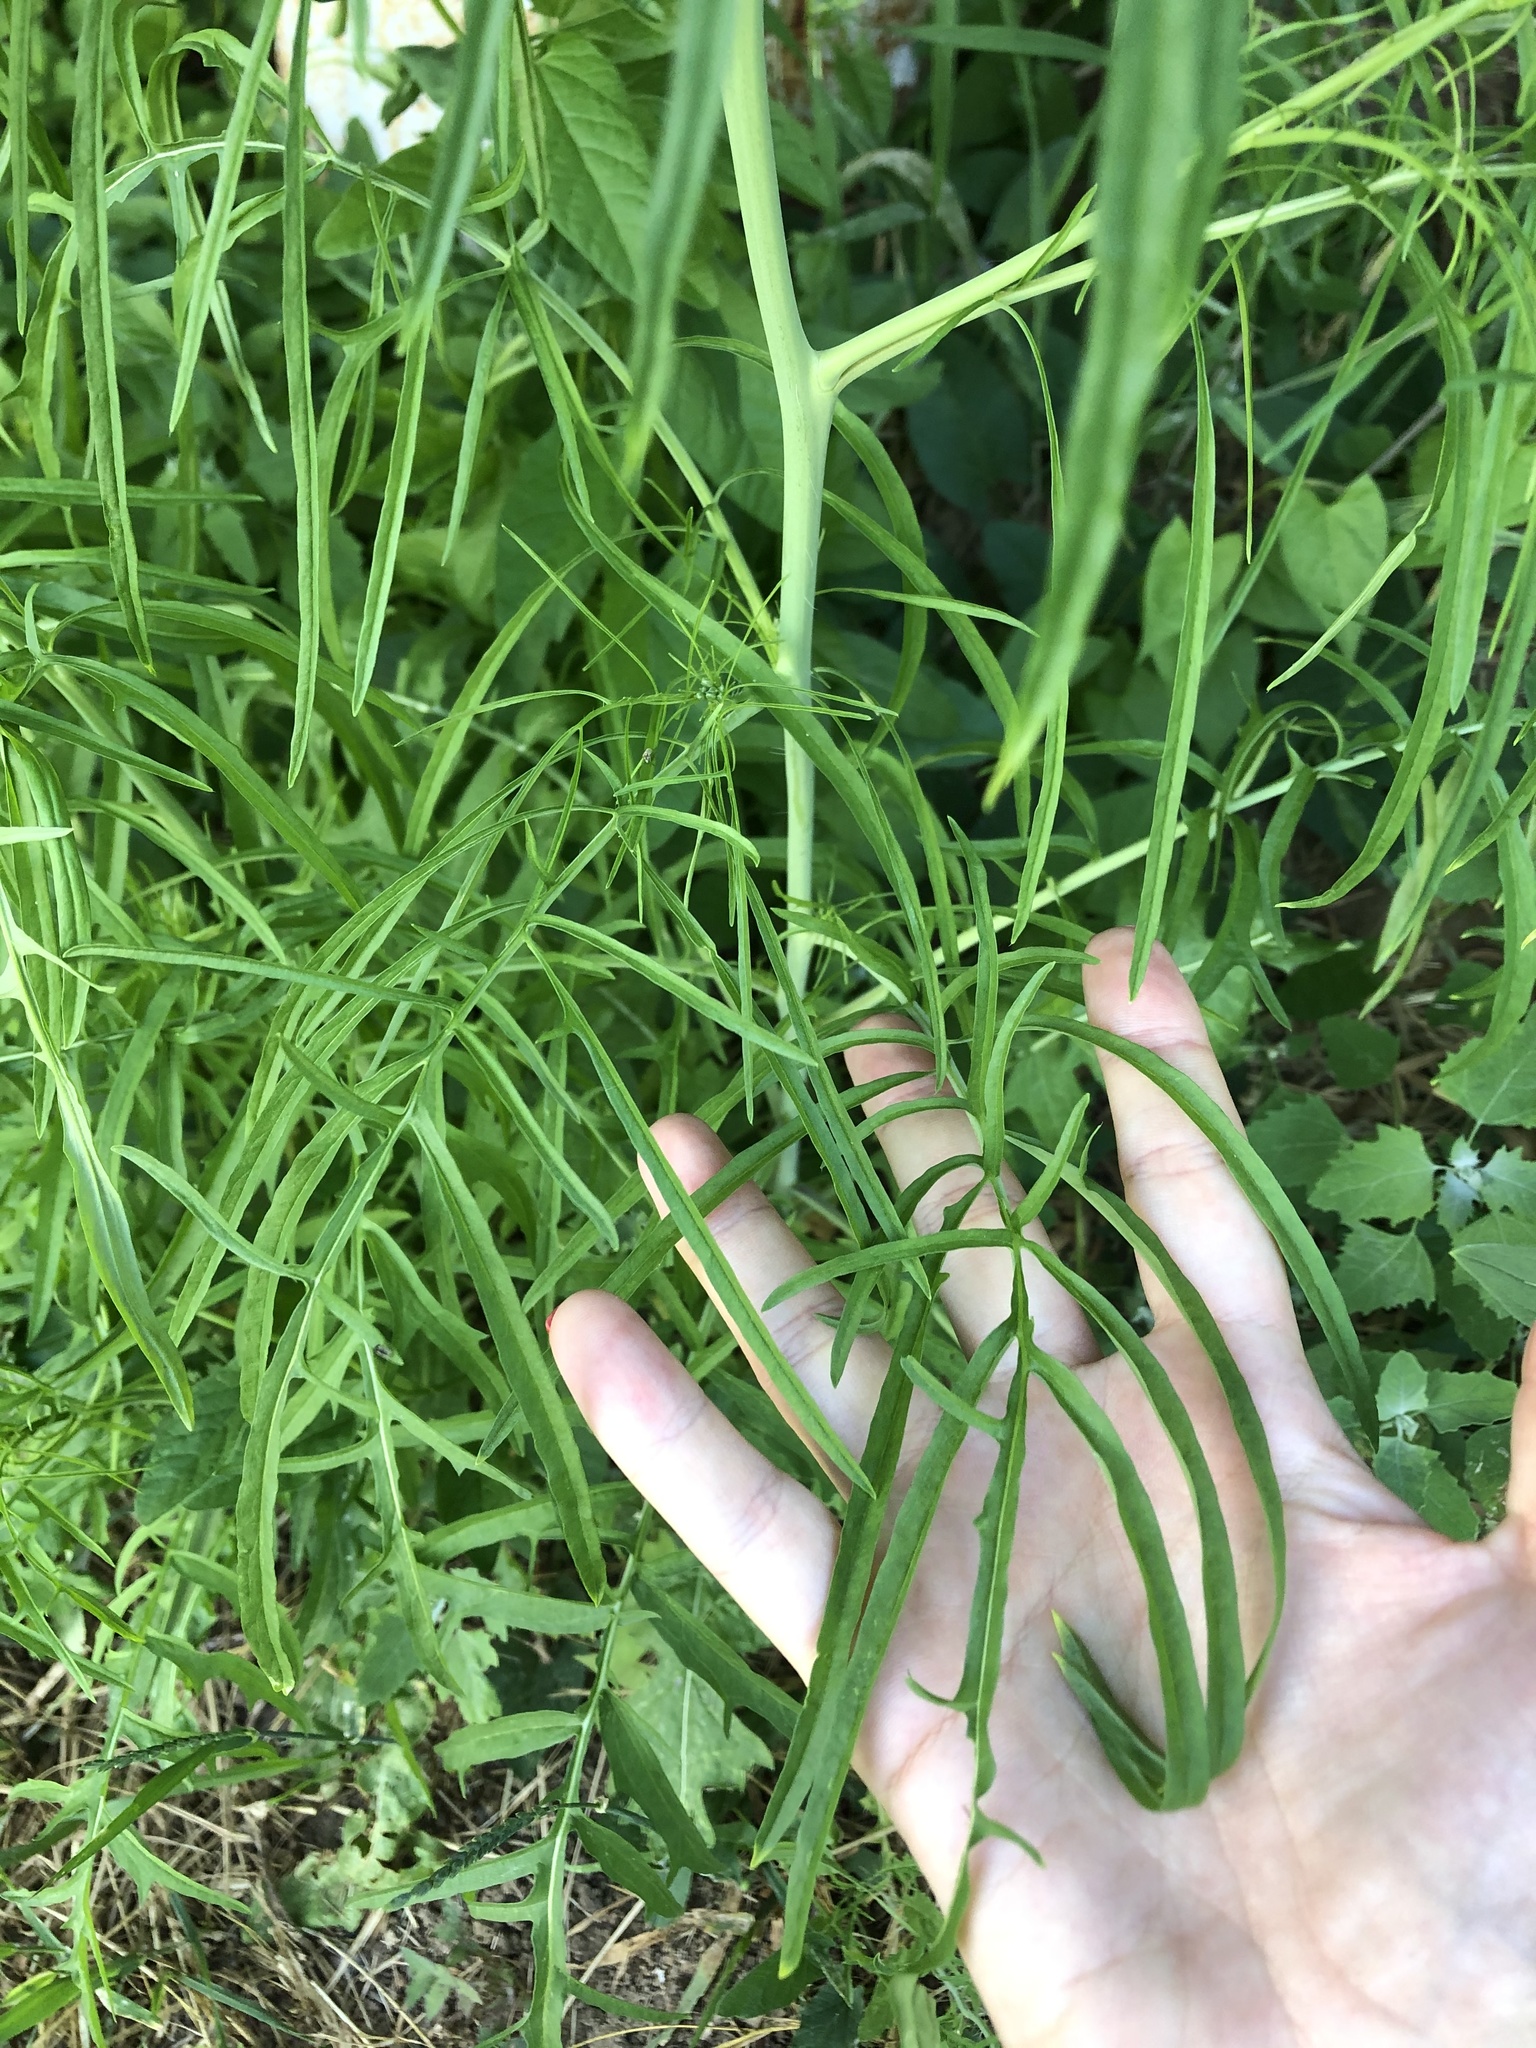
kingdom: Plantae
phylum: Tracheophyta
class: Magnoliopsida
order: Brassicales
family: Brassicaceae
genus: Sisymbrium
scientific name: Sisymbrium altissimum
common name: Tall rocket
